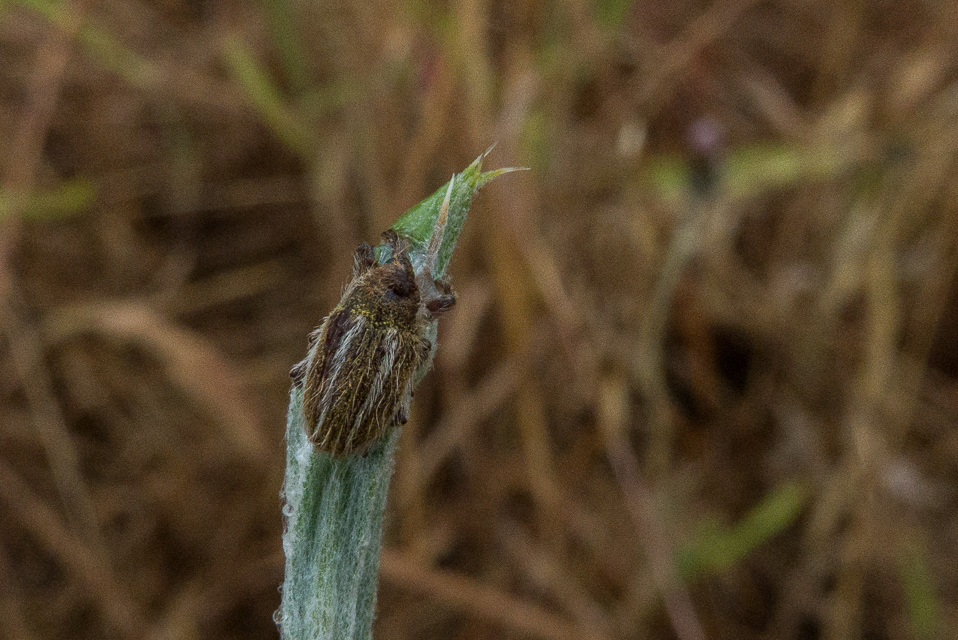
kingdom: Plantae
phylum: Tracheophyta
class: Magnoliopsida
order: Asterales
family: Asteraceae
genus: Centaurea
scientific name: Centaurea solstitialis
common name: Yellow star-thistle
